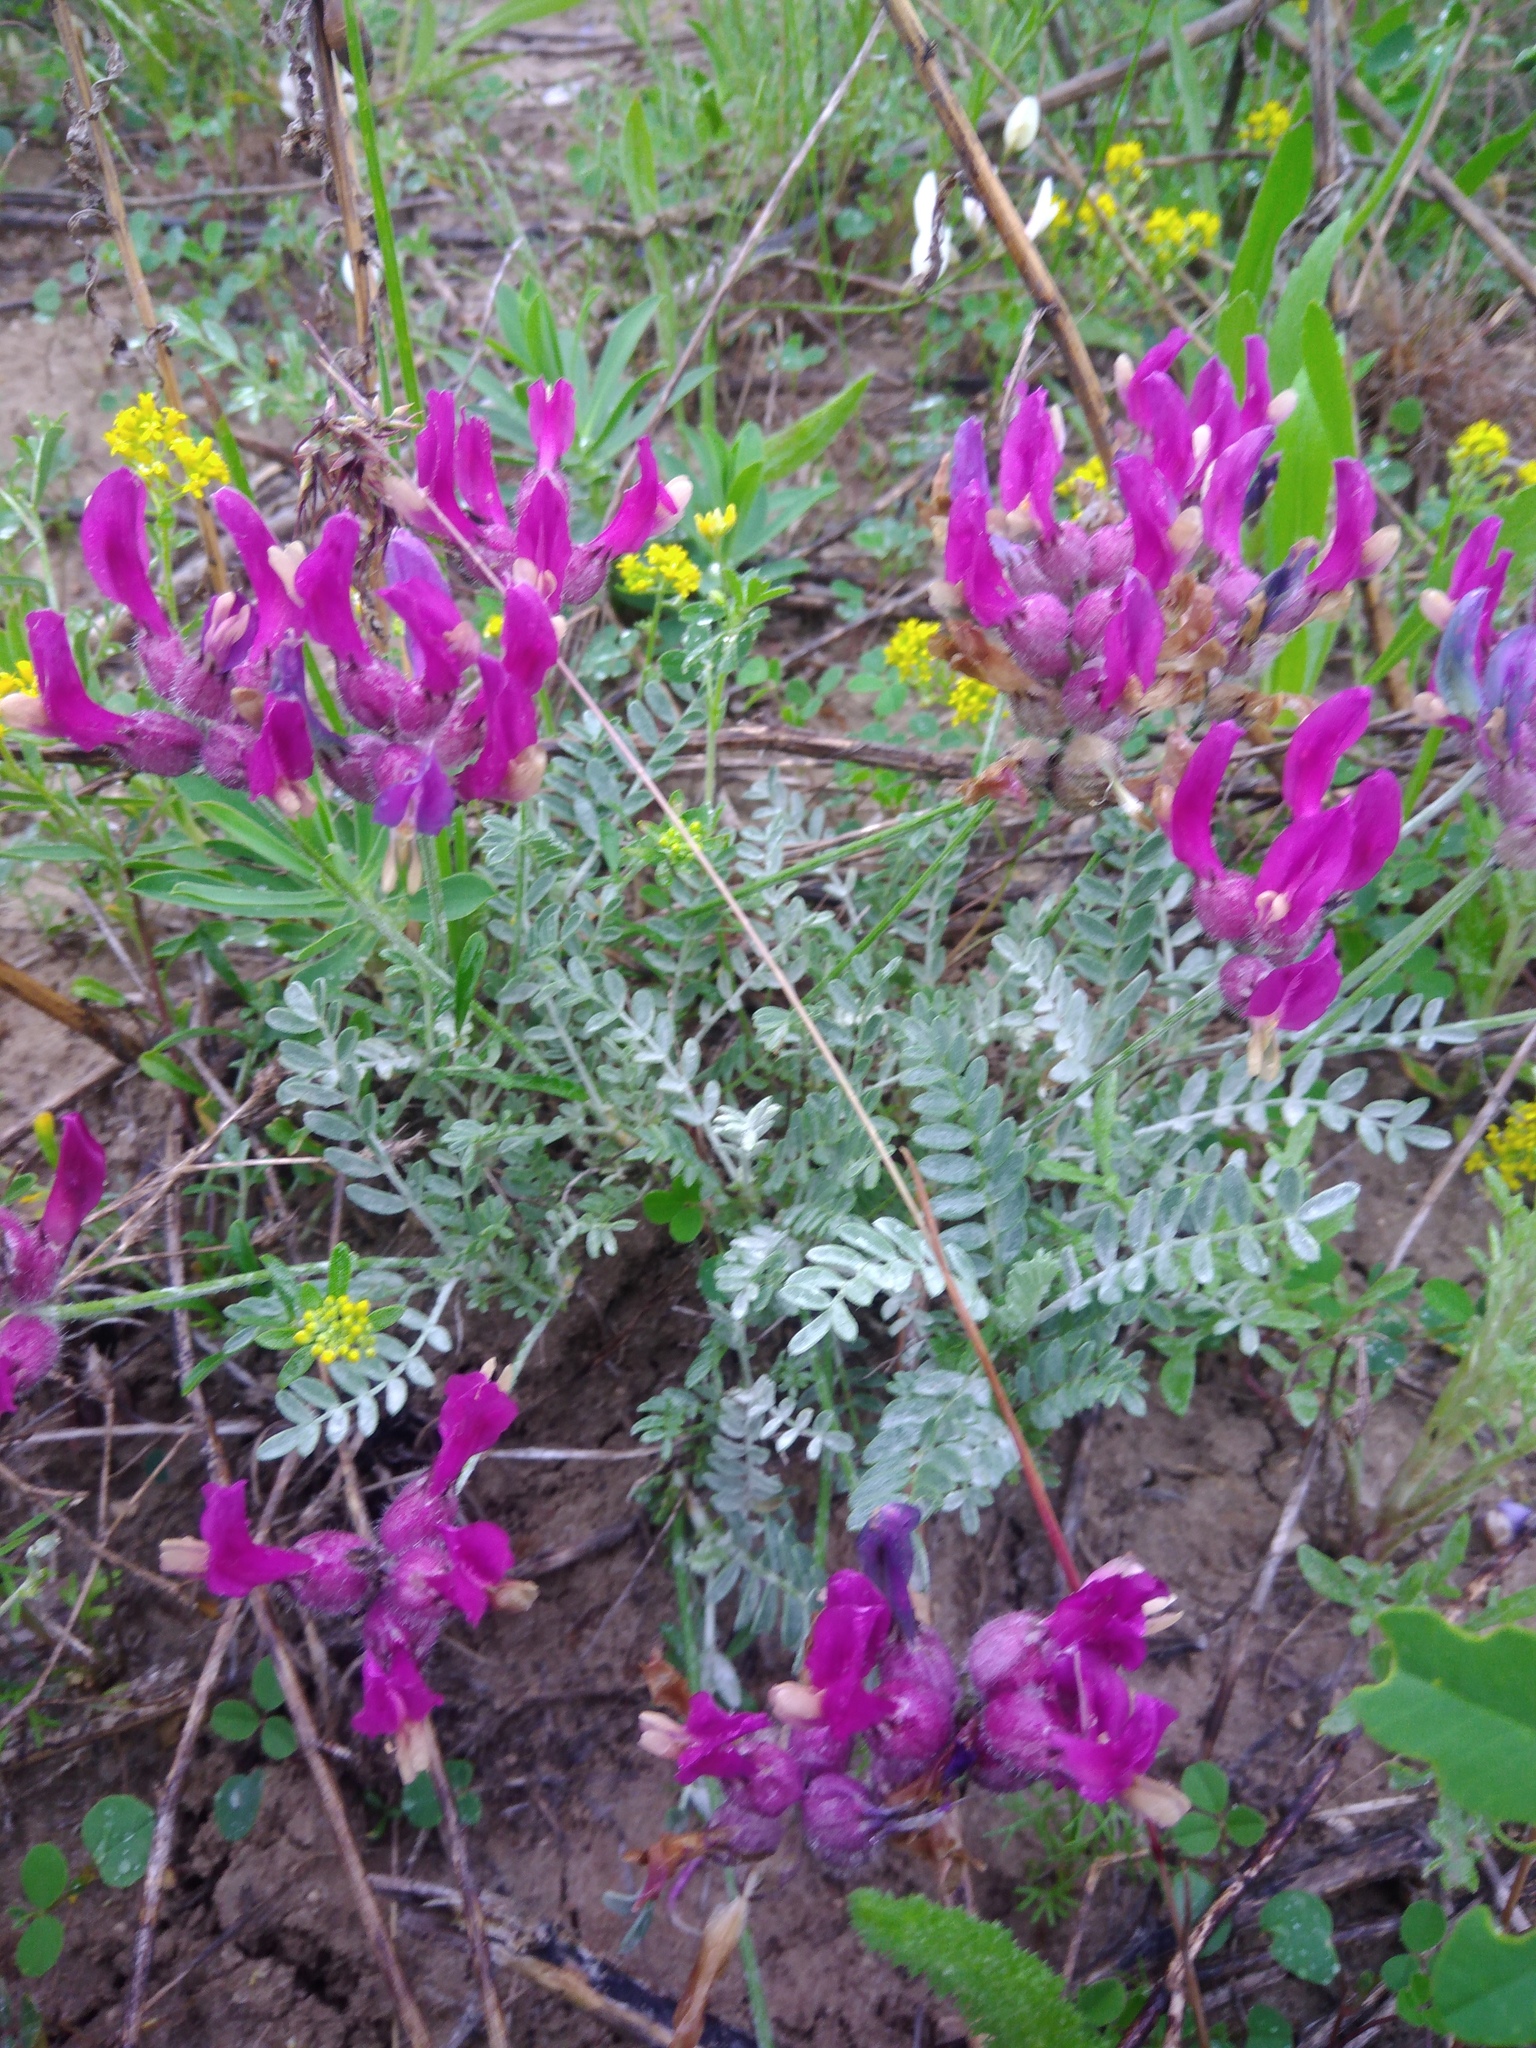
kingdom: Plantae
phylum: Tracheophyta
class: Magnoliopsida
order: Fabales
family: Fabaceae
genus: Astragalus
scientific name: Astragalus vesicarius
